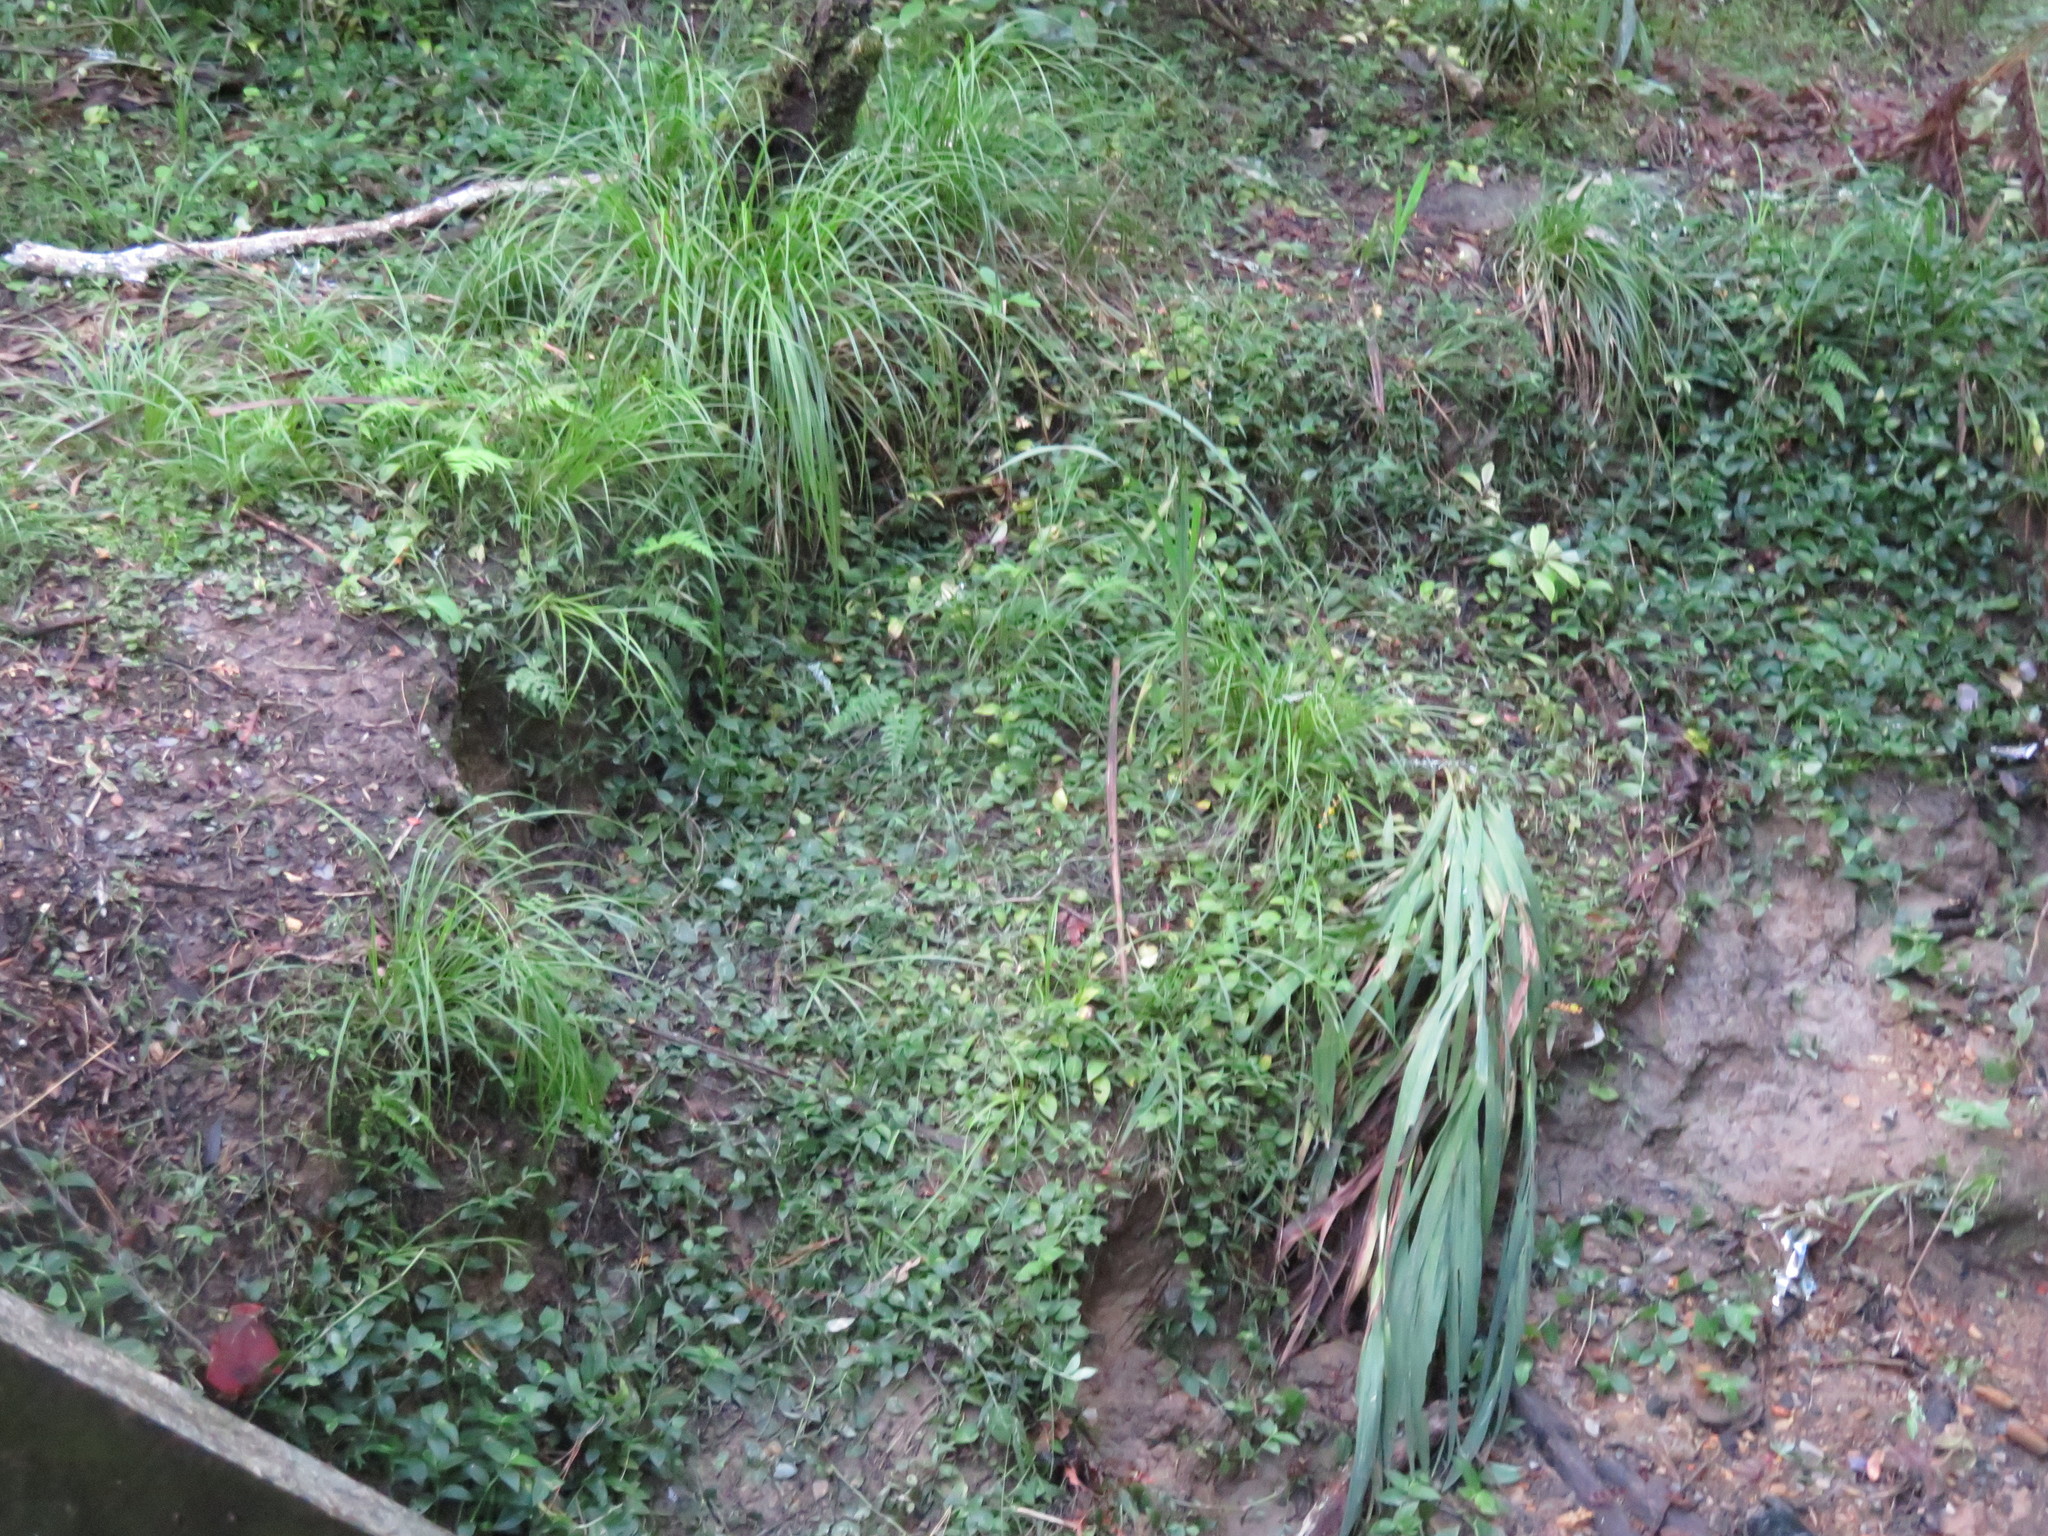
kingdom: Plantae
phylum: Tracheophyta
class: Liliopsida
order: Asparagales
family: Iridaceae
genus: Crocosmia
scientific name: Crocosmia crocosmiiflora
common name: Montbretia
